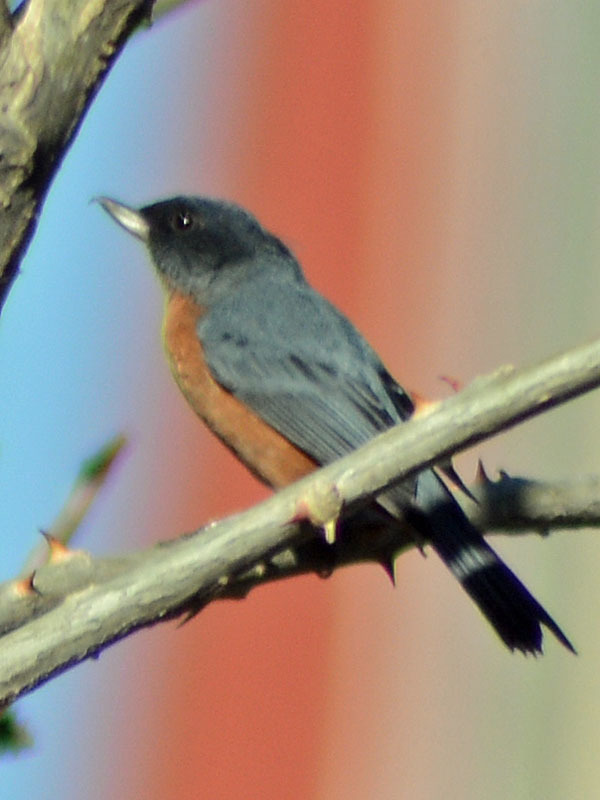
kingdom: Animalia
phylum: Chordata
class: Aves
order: Passeriformes
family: Thraupidae
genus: Diglossa
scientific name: Diglossa baritula
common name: Cinnamon-bellied flowerpiercer
